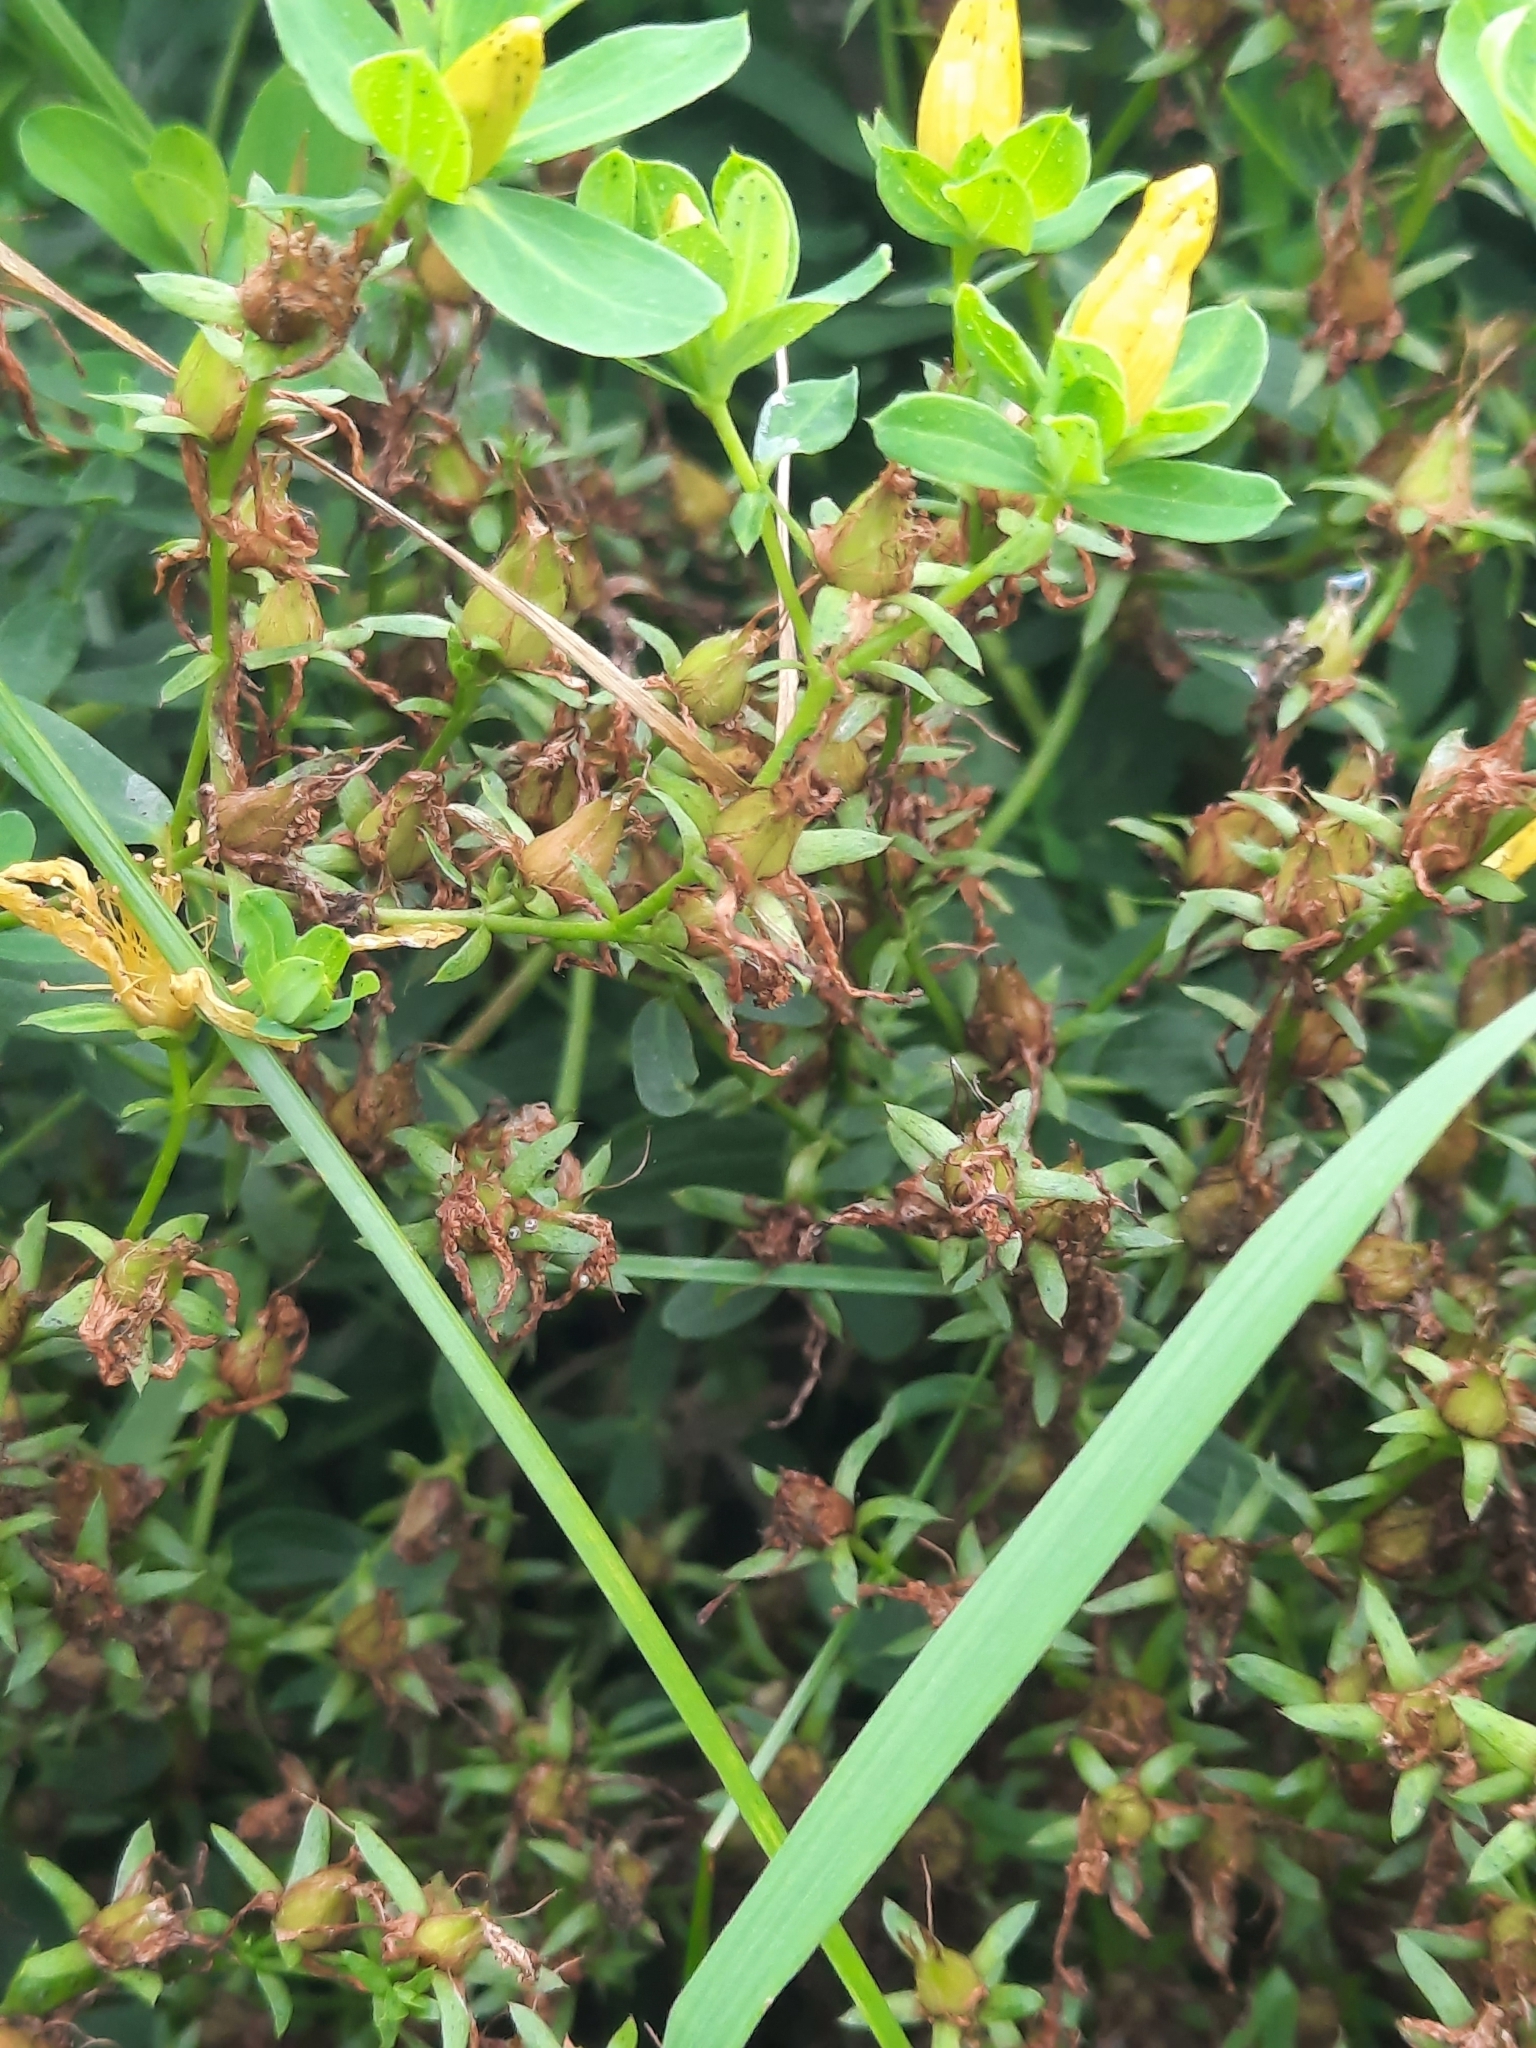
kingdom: Plantae
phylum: Tracheophyta
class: Magnoliopsida
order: Malpighiales
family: Hypericaceae
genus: Hypericum
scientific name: Hypericum perforatum
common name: Common st. johnswort
